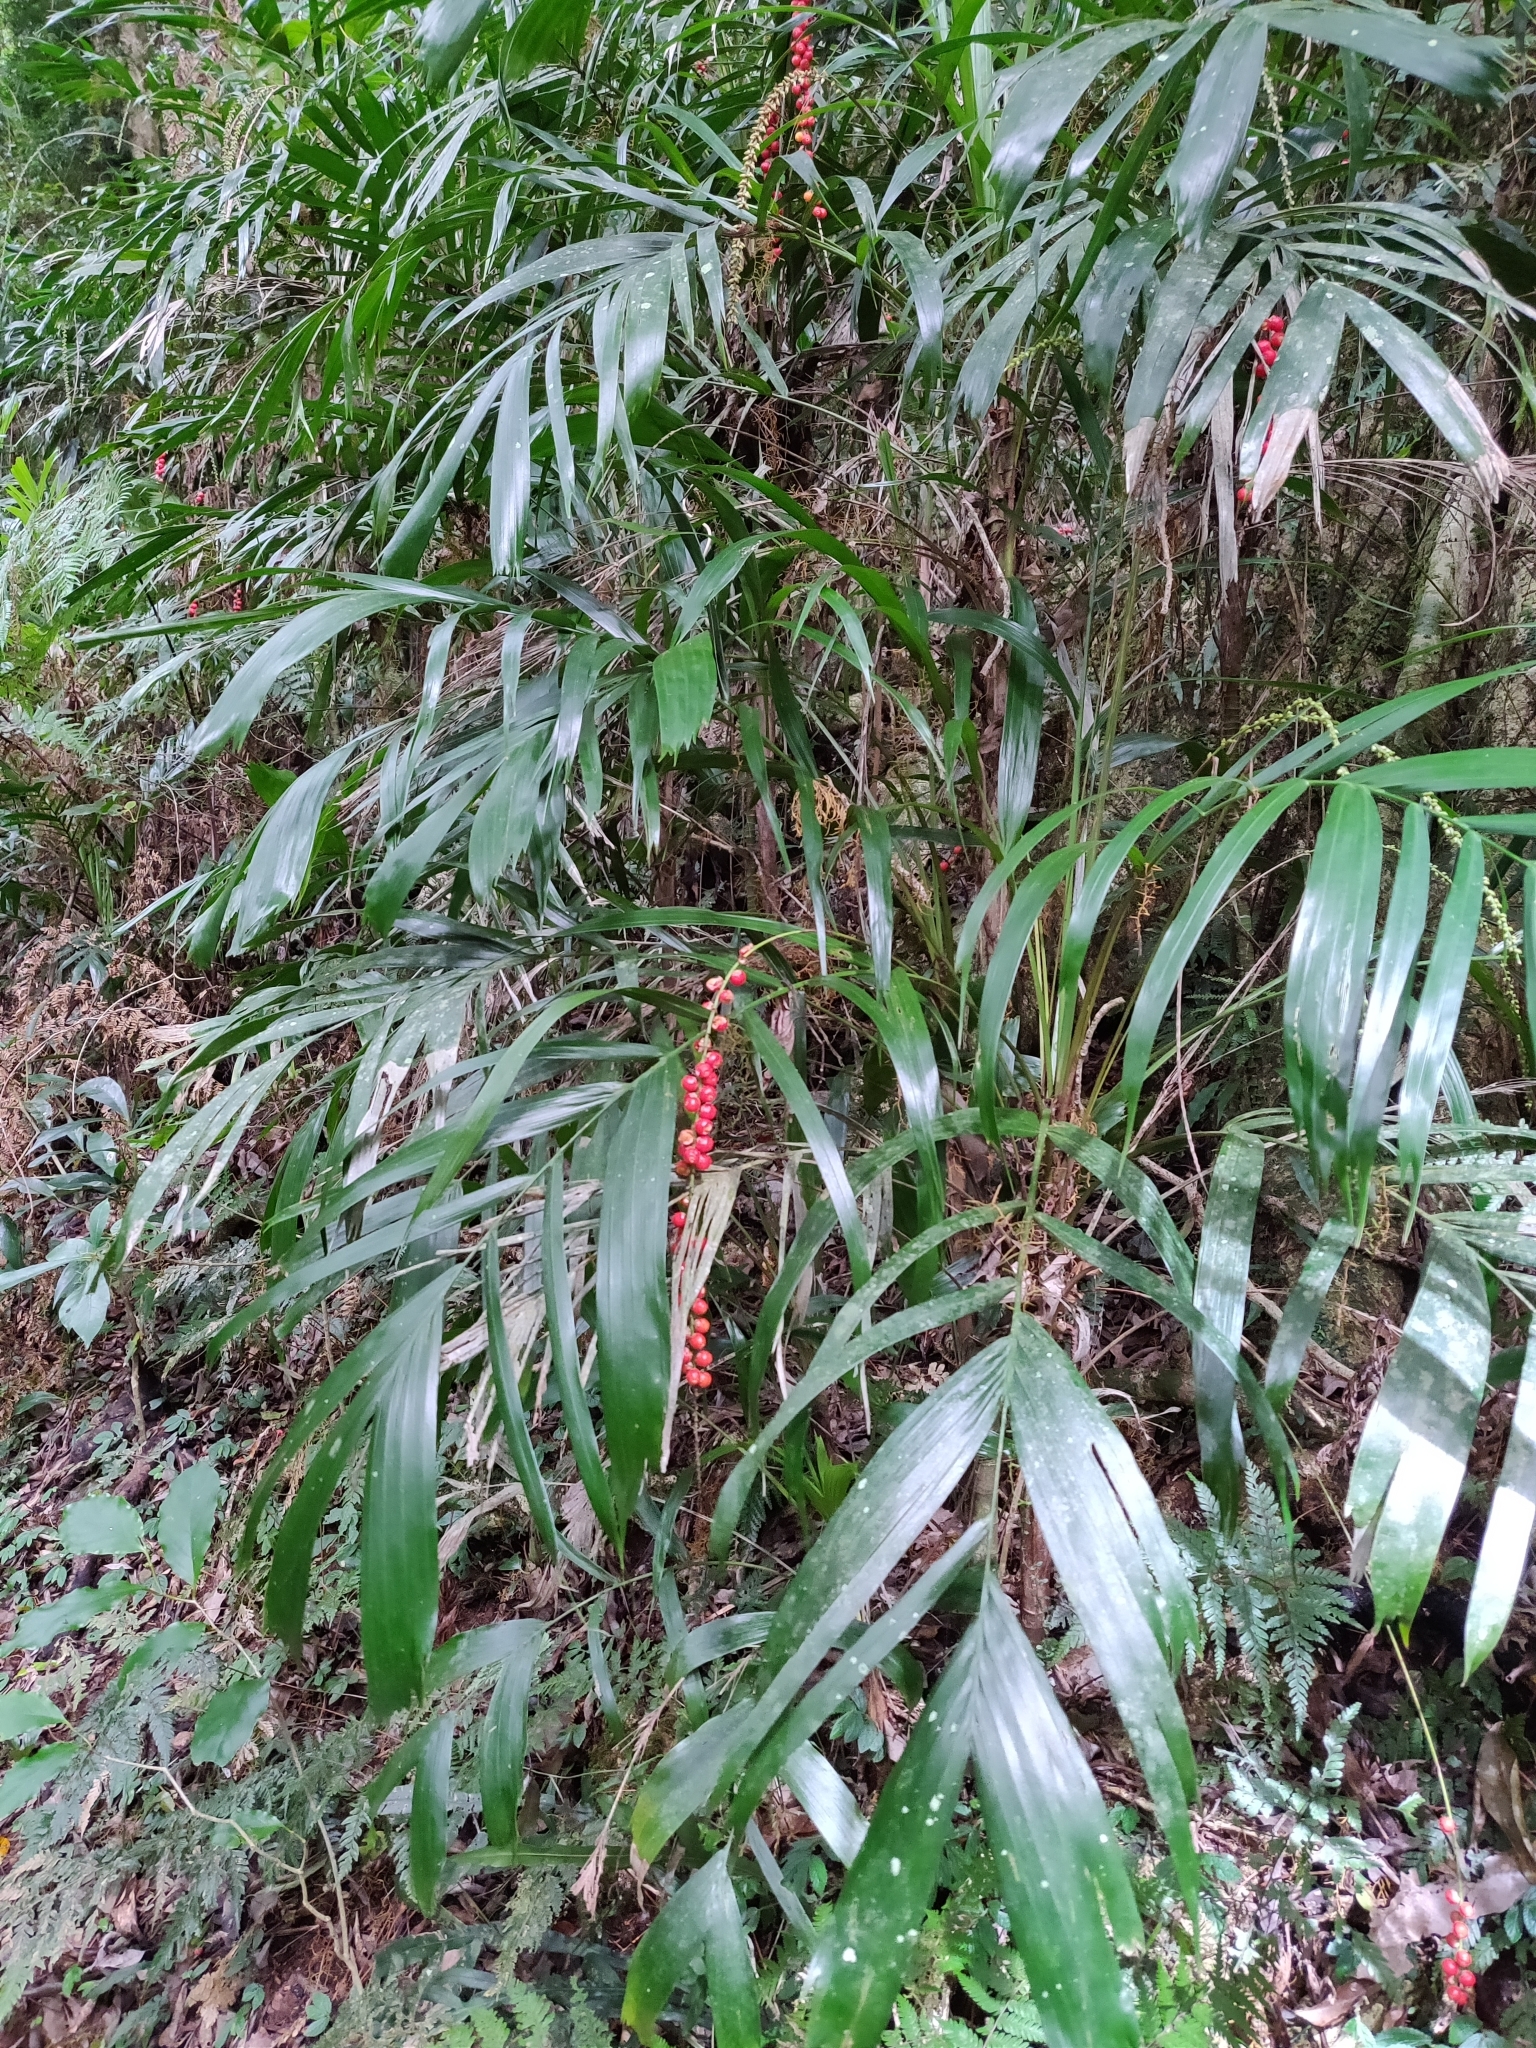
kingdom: Plantae
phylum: Tracheophyta
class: Liliopsida
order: Arecales
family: Arecaceae
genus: Linospadix
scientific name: Linospadix monostachyus
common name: Walking-stick palm
